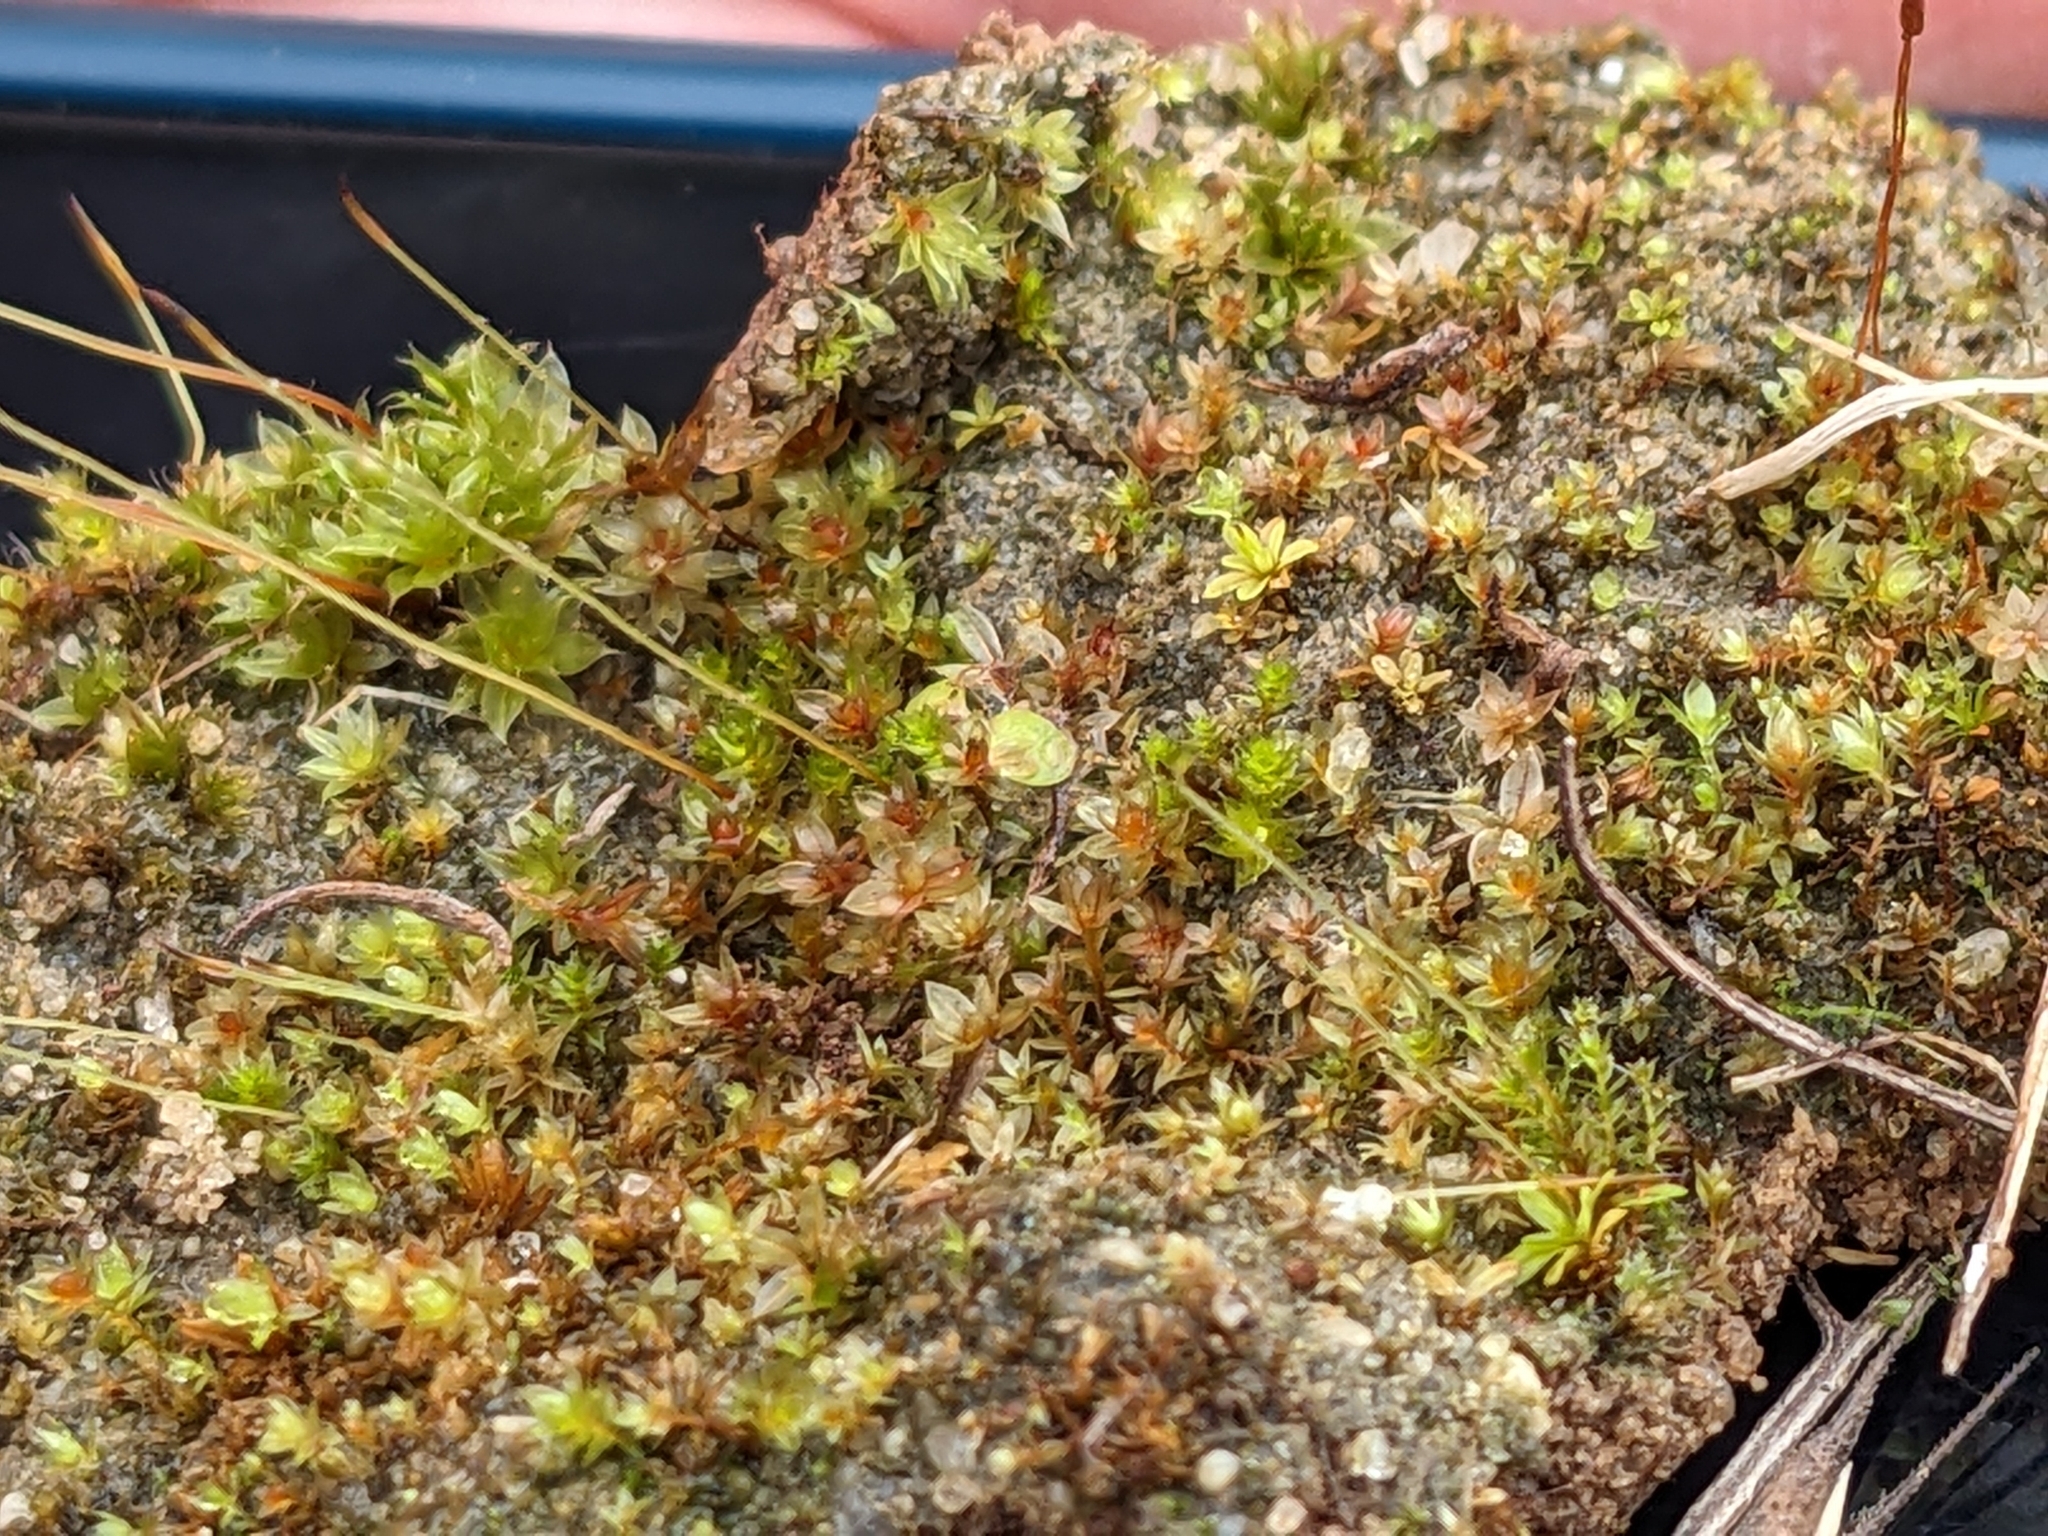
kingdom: Plantae
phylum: Bryophyta
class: Bryopsida
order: Pottiales
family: Pottiaceae
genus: Tortula
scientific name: Tortula bolanderi
